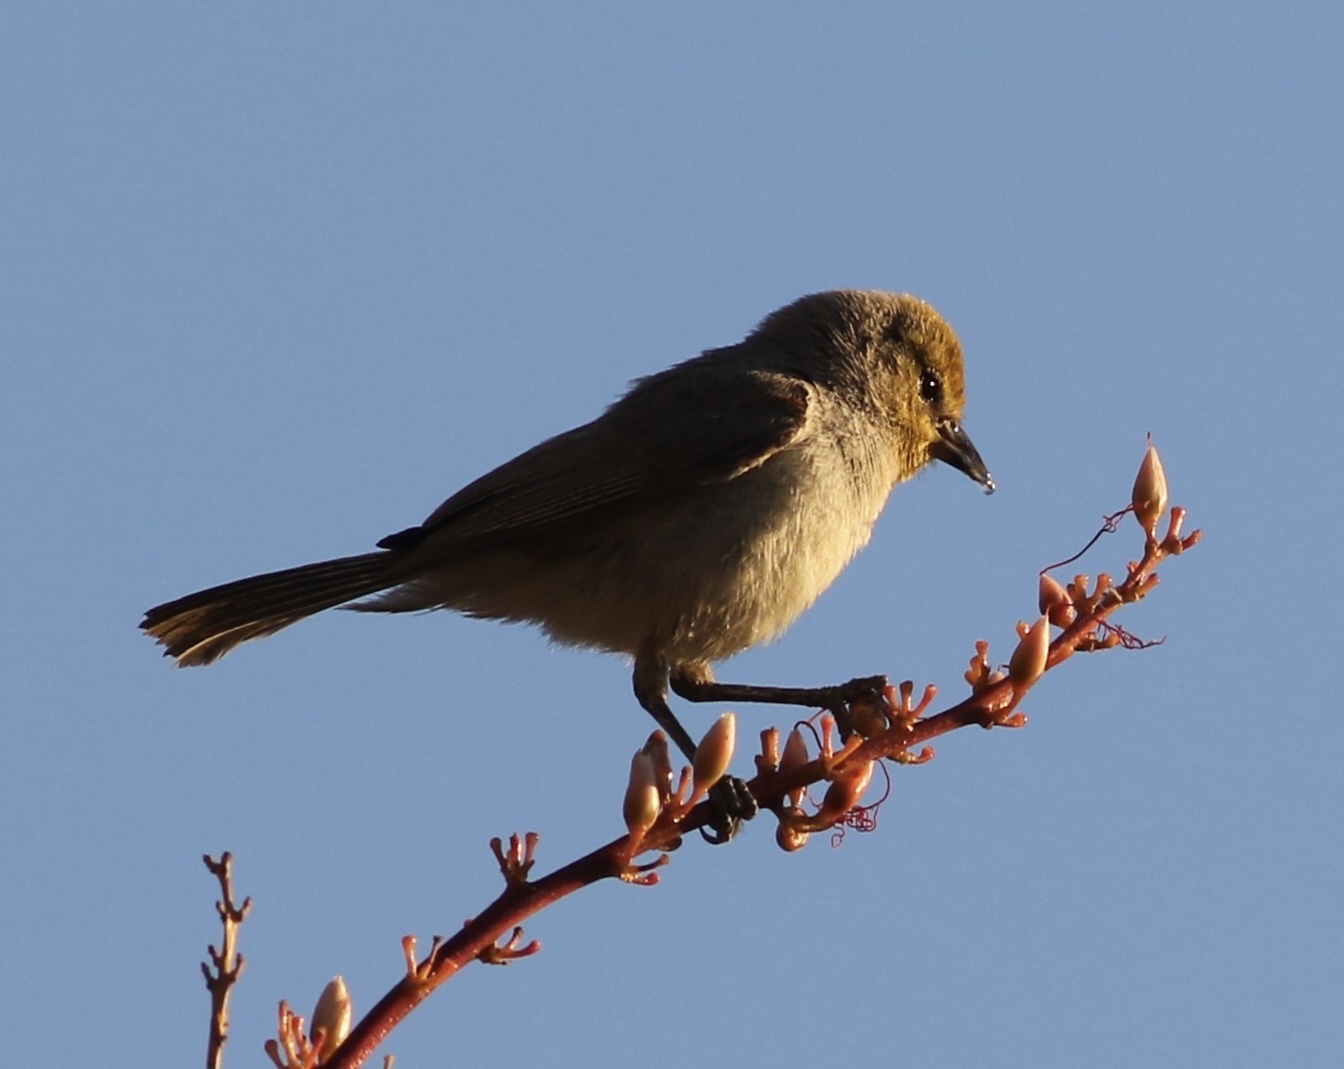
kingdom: Animalia
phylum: Chordata
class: Aves
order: Passeriformes
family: Remizidae
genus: Auriparus
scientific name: Auriparus flaviceps
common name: Verdin
